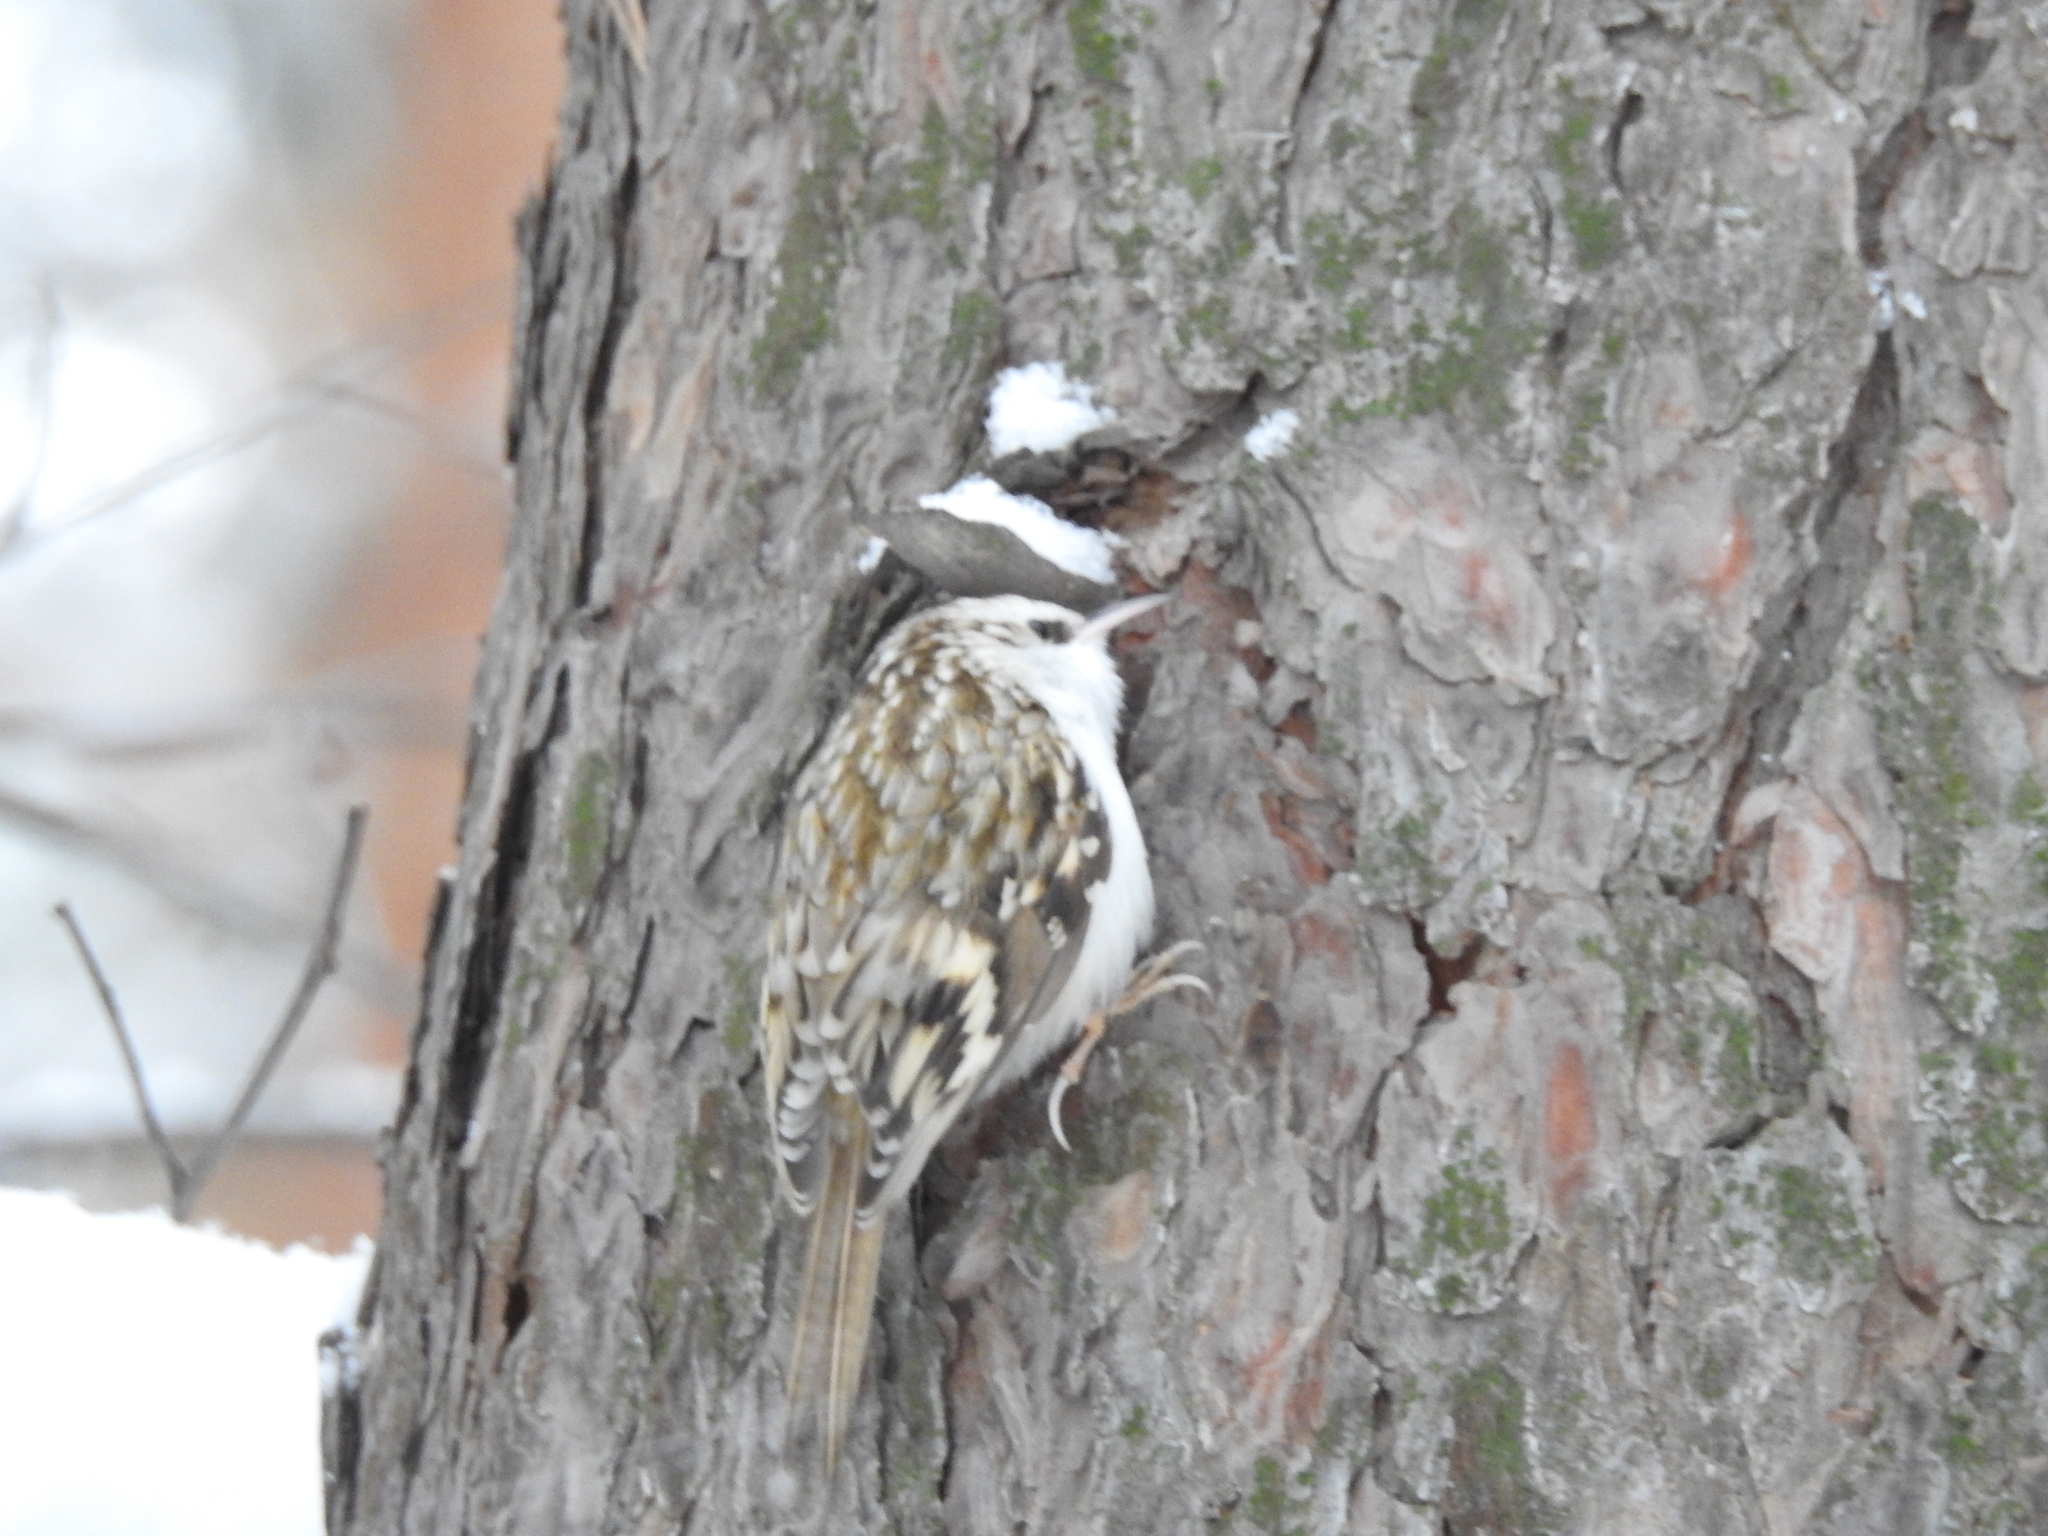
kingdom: Animalia
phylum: Chordata
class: Aves
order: Passeriformes
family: Certhiidae
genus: Certhia
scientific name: Certhia familiaris
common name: Eurasian treecreeper
